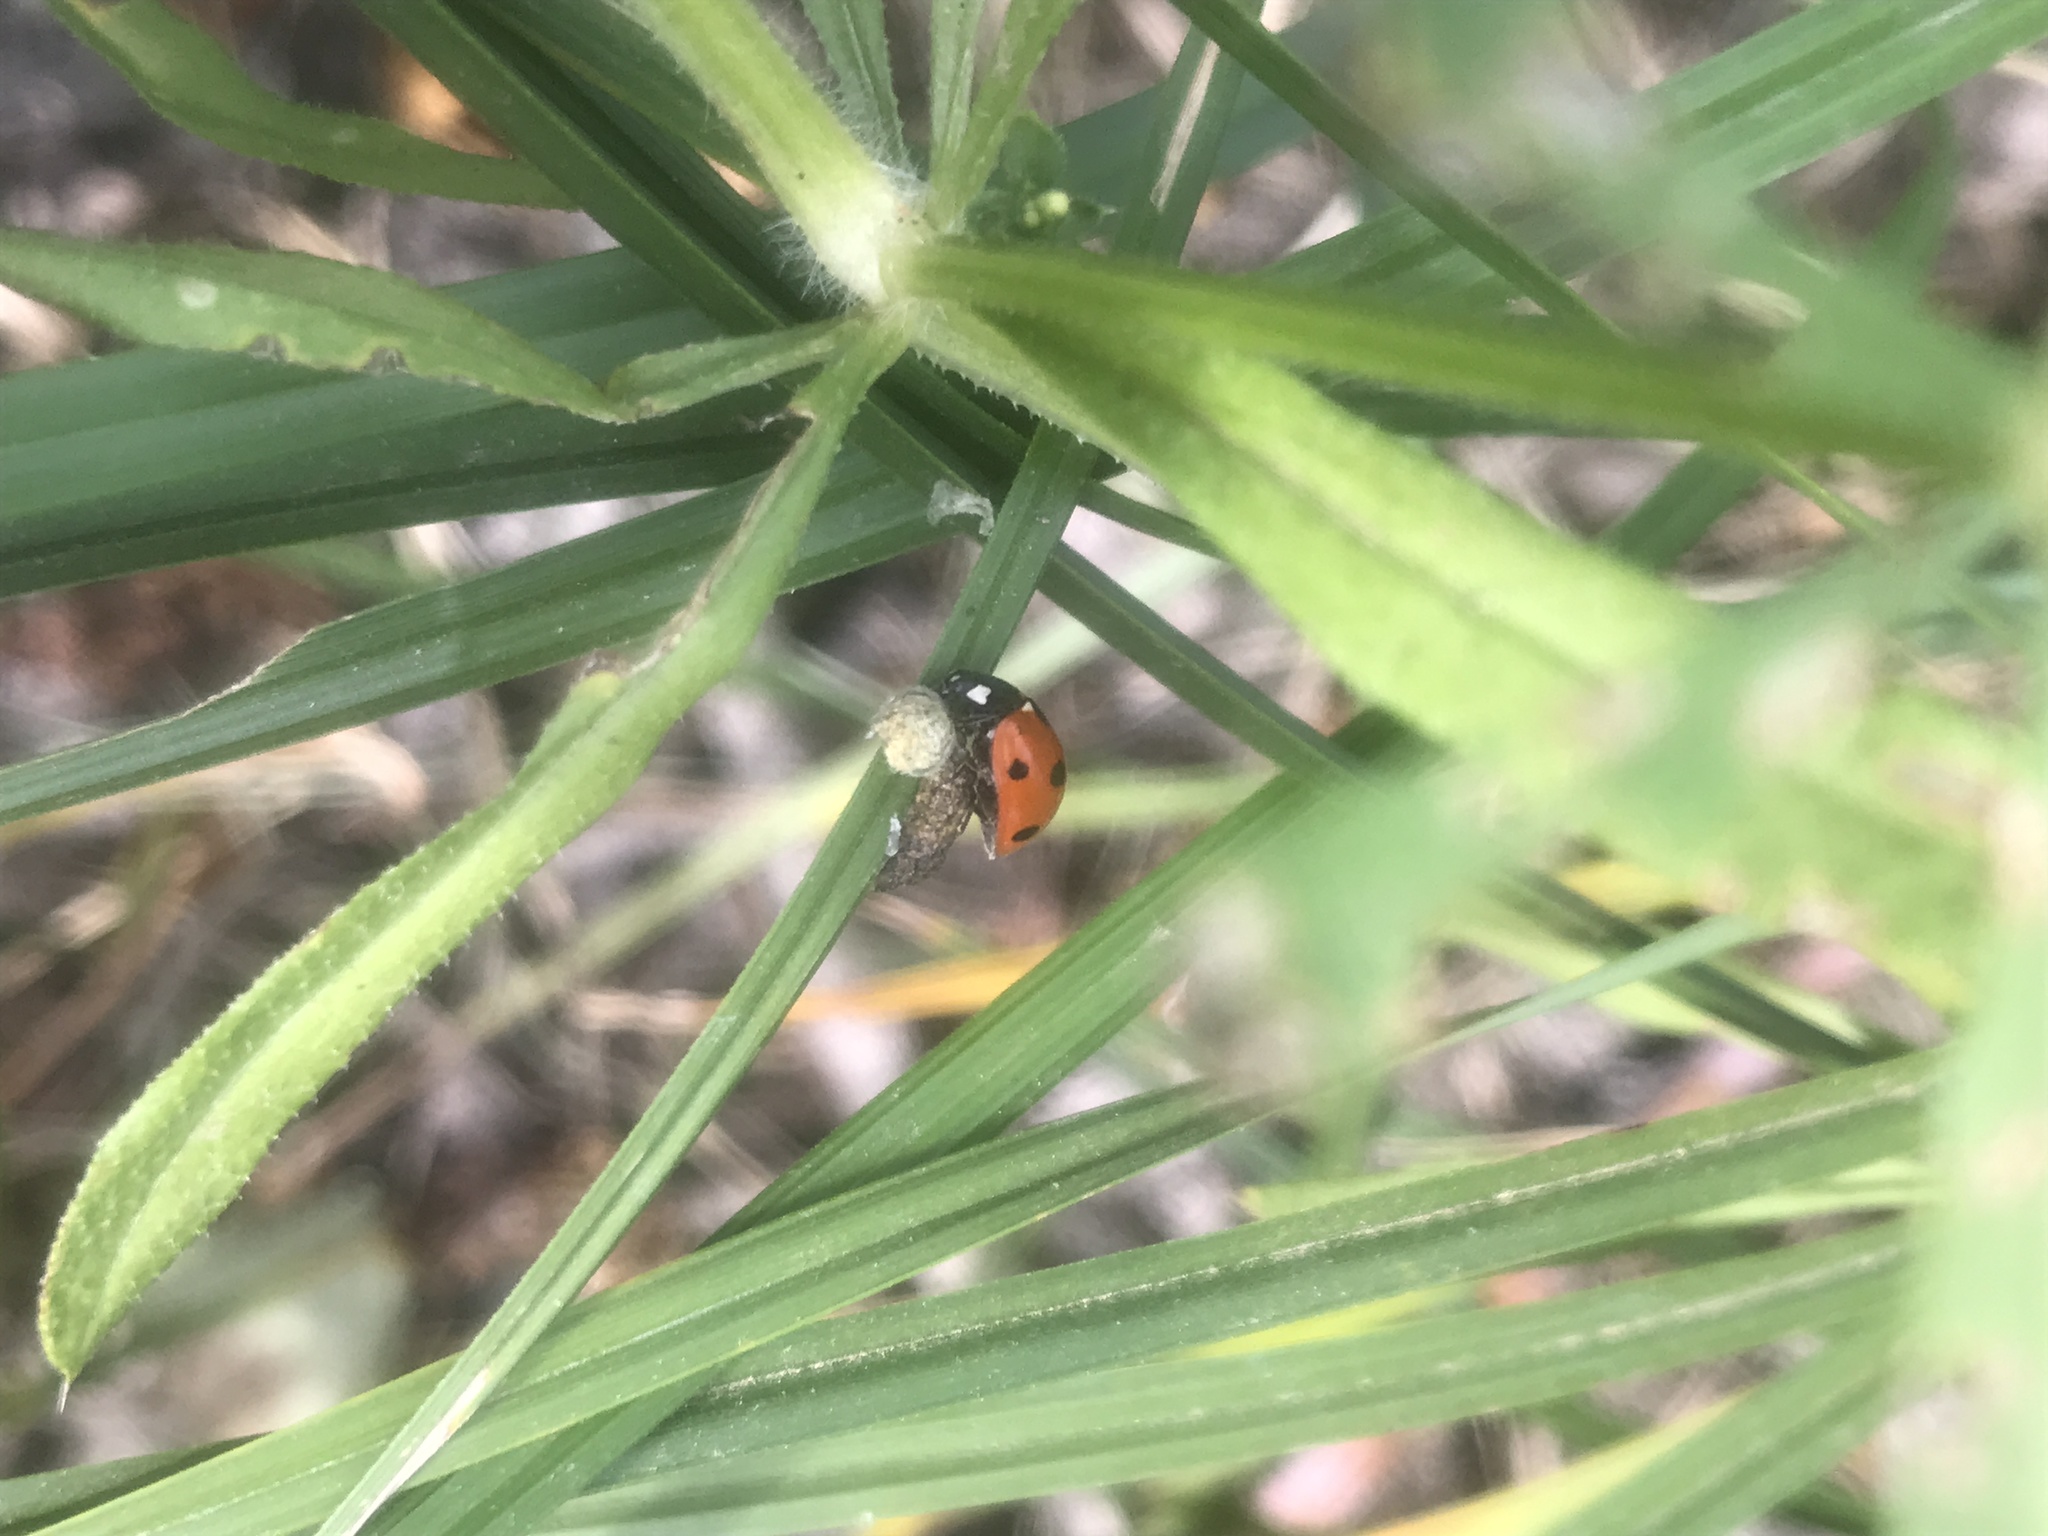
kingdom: Animalia
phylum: Arthropoda
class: Insecta
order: Coleoptera
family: Coccinellidae
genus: Coccinella
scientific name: Coccinella septempunctata
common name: Sevenspotted lady beetle
